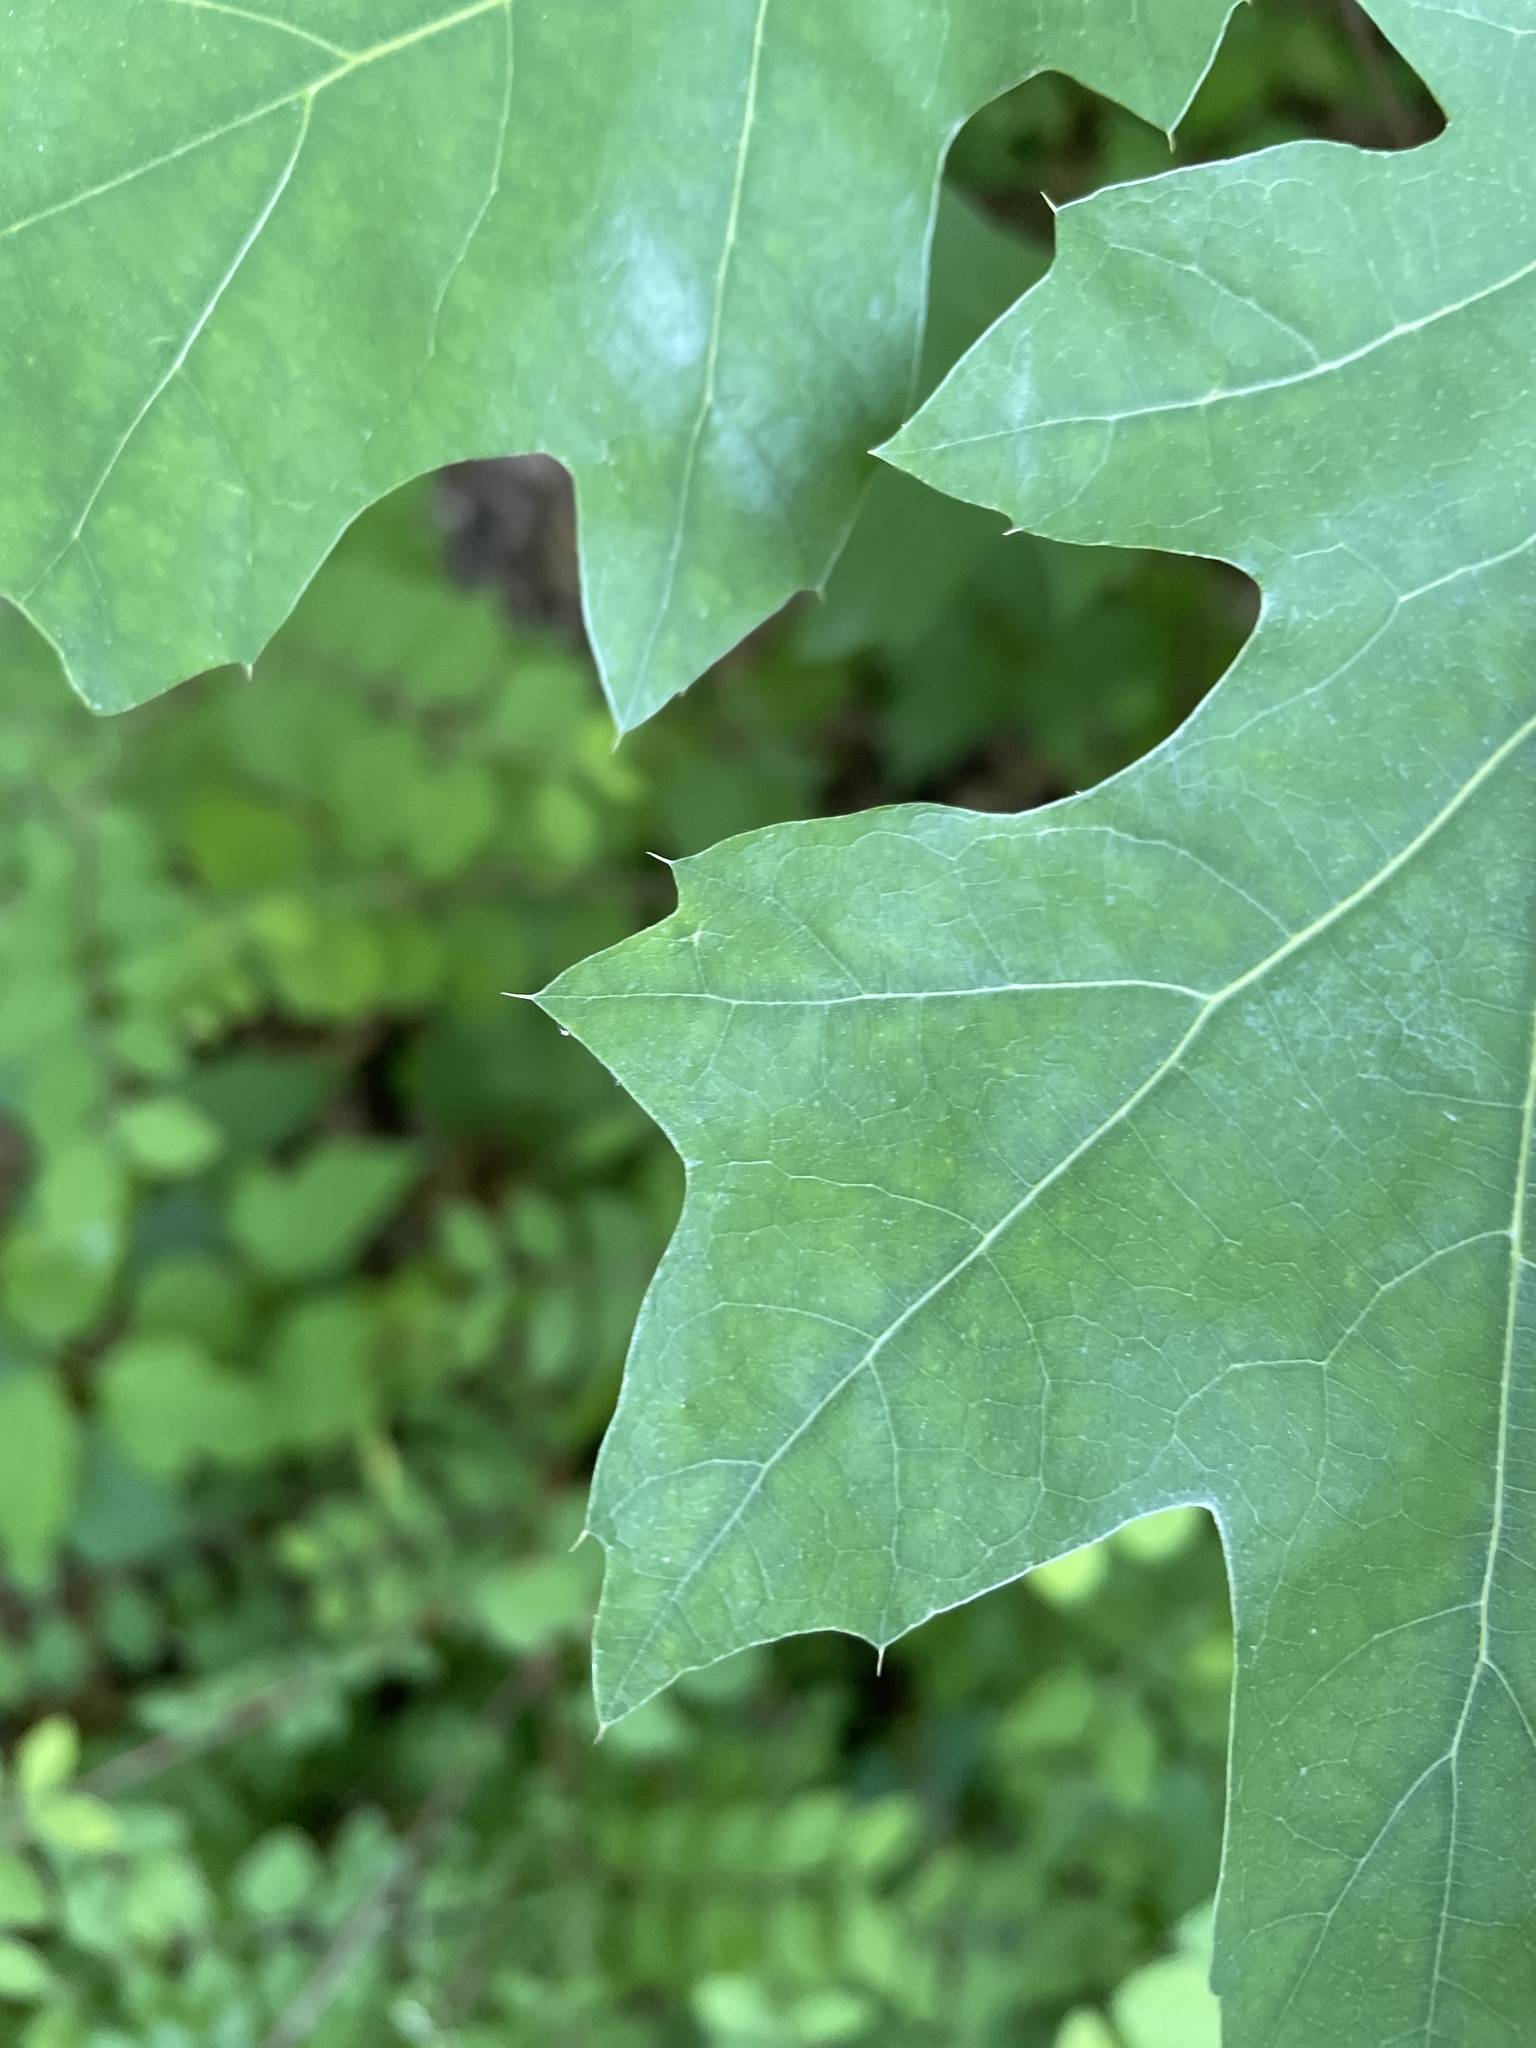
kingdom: Plantae
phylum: Tracheophyta
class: Magnoliopsida
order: Fagales
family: Fagaceae
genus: Quercus
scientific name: Quercus shumardii
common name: Shumard oak
